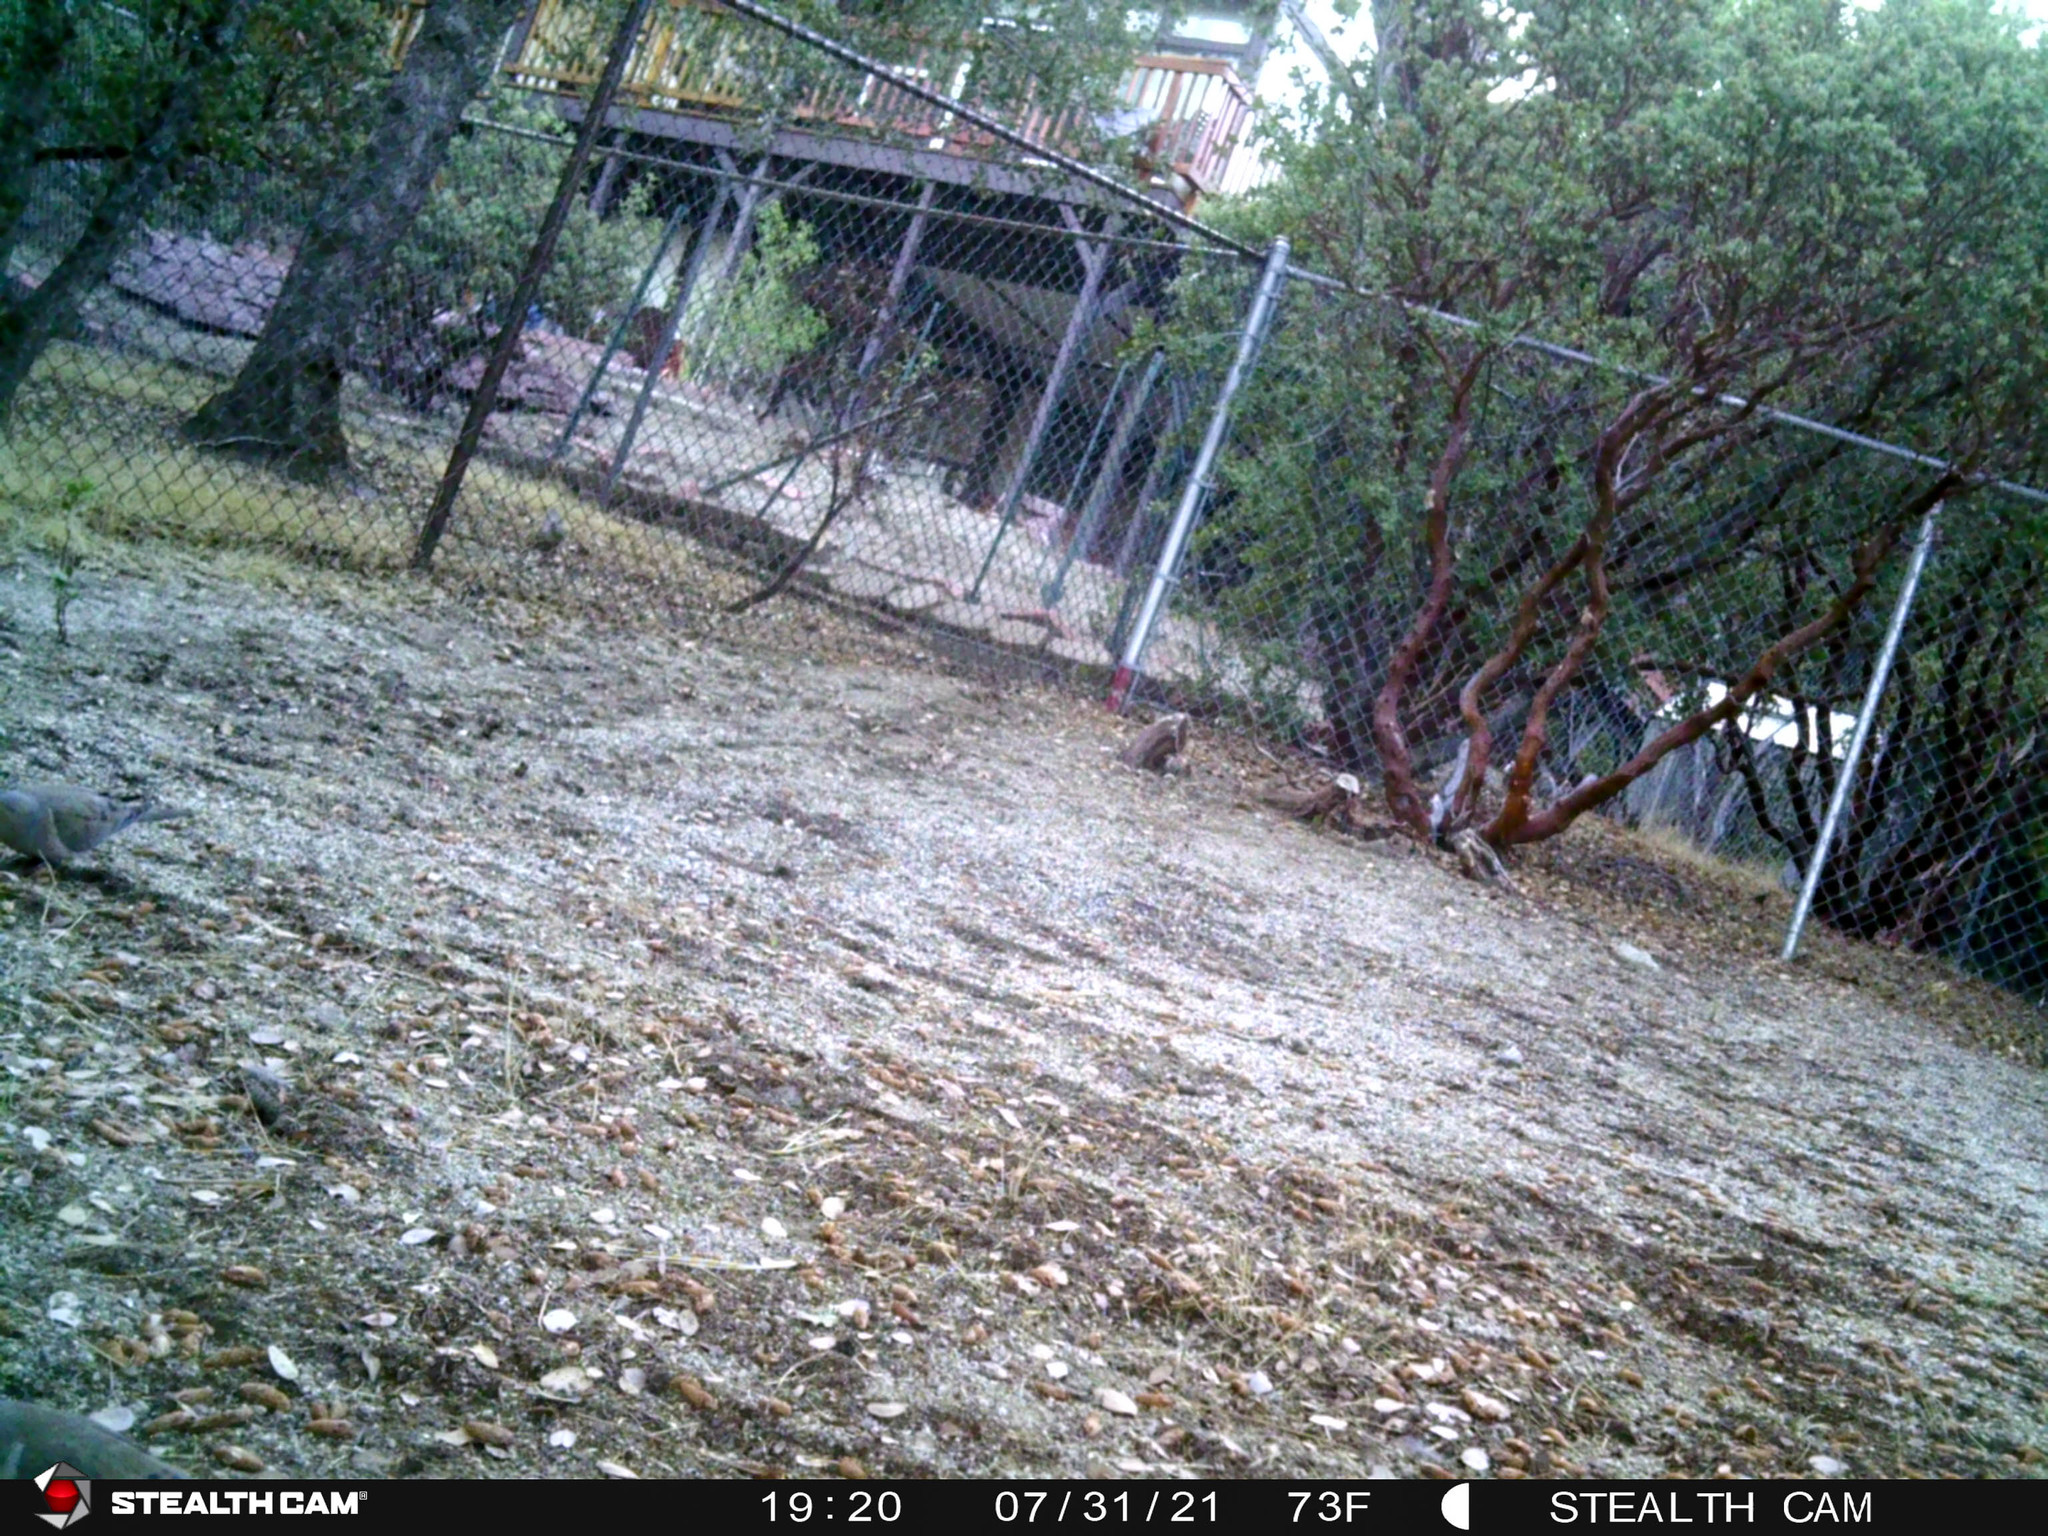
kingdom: Animalia
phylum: Chordata
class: Aves
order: Columbiformes
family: Columbidae
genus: Zenaida
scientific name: Zenaida macroura
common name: Mourning dove
